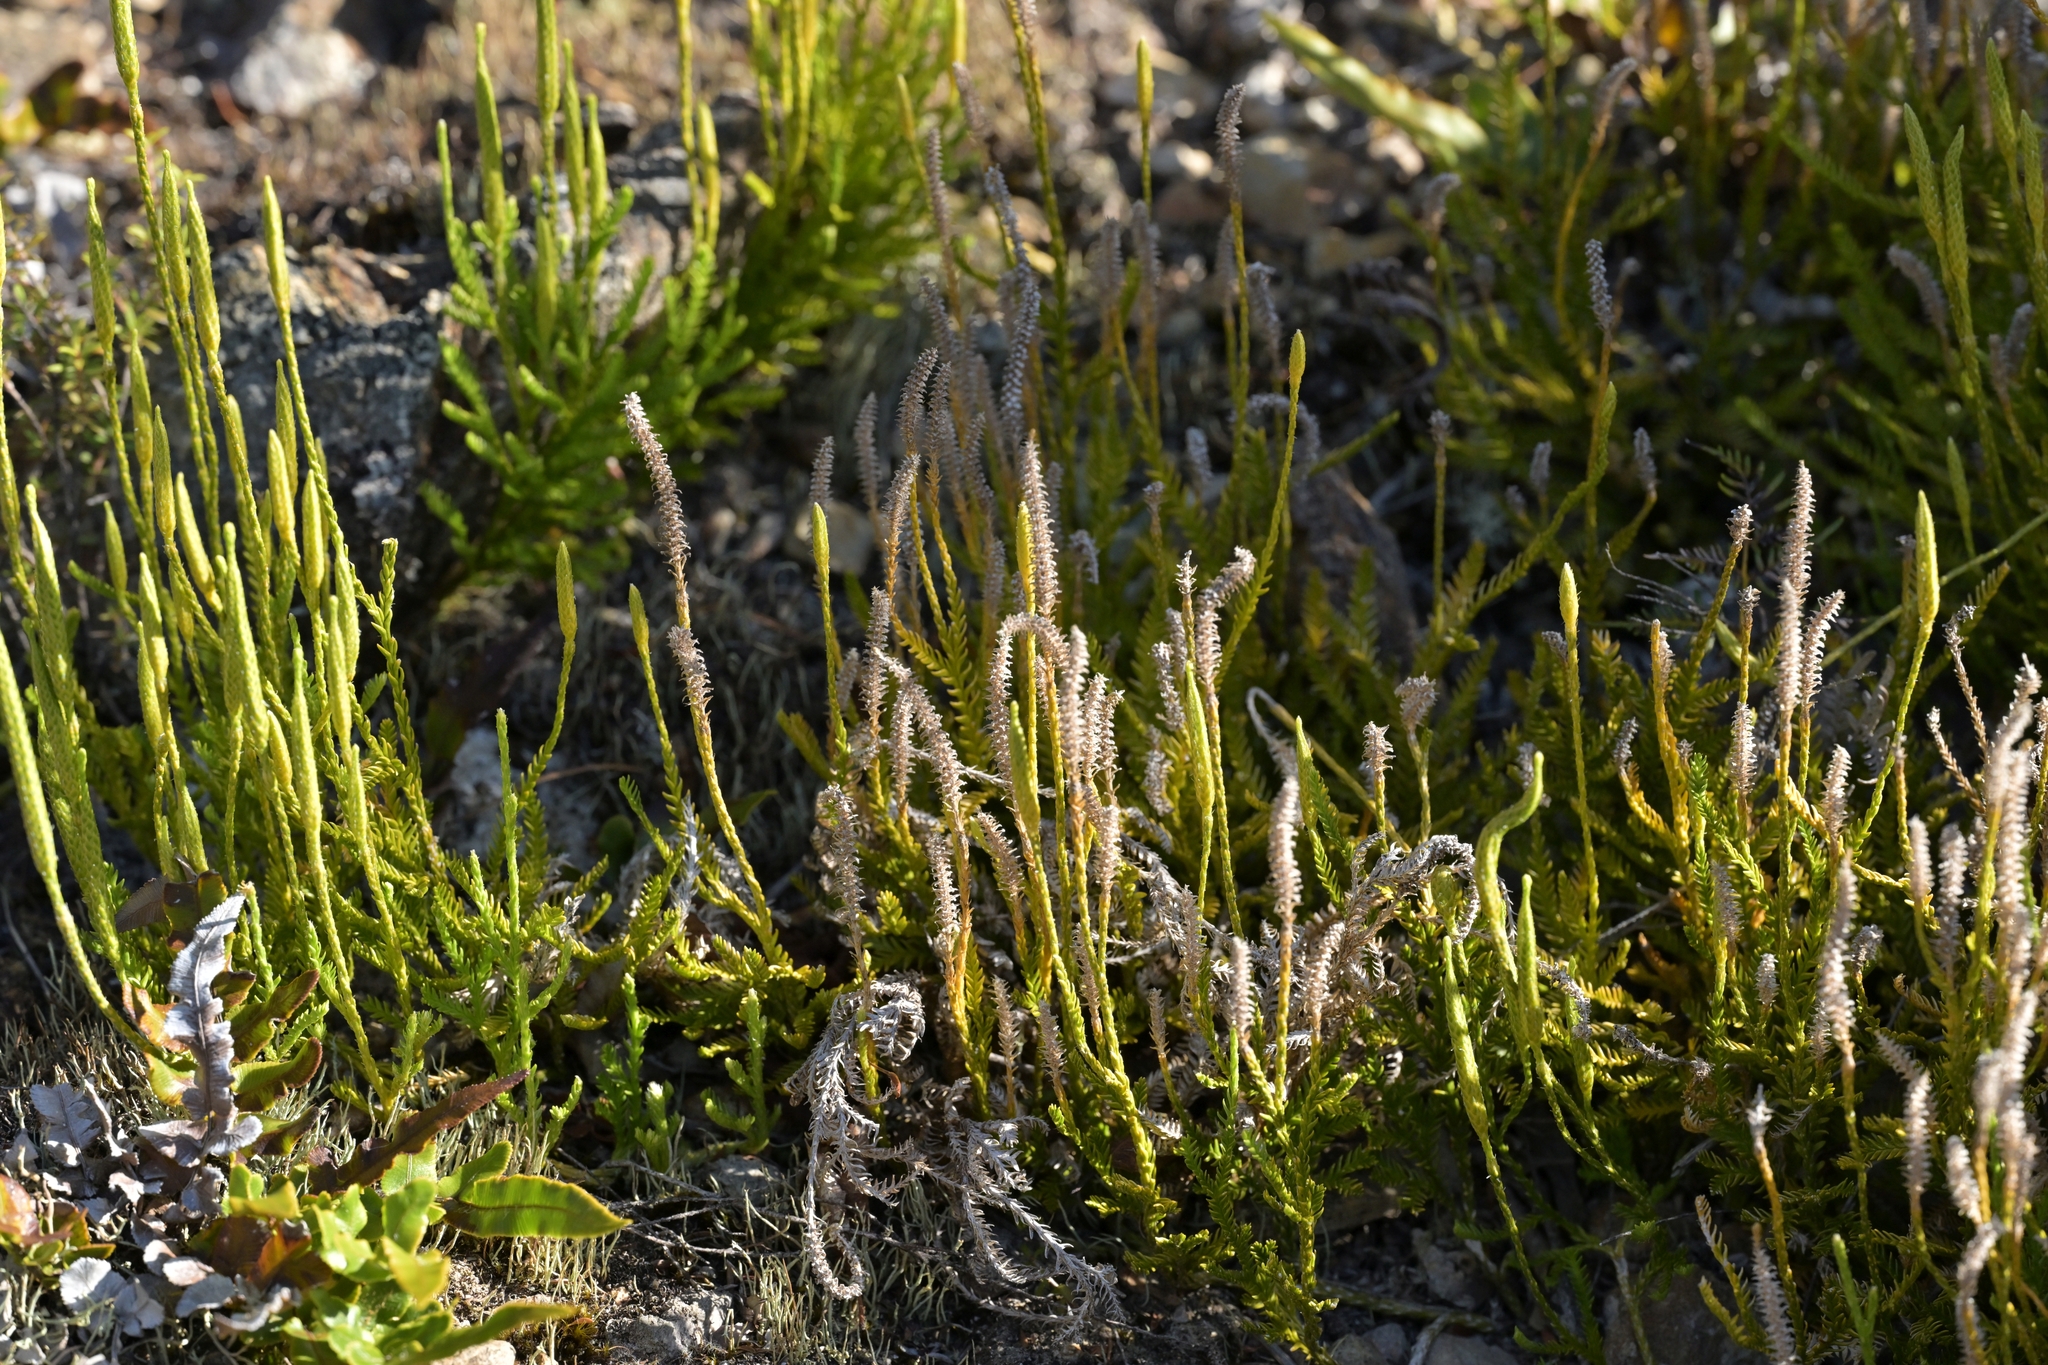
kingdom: Plantae
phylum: Tracheophyta
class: Lycopodiopsida
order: Lycopodiales
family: Lycopodiaceae
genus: Diphasium
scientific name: Diphasium scariosum
